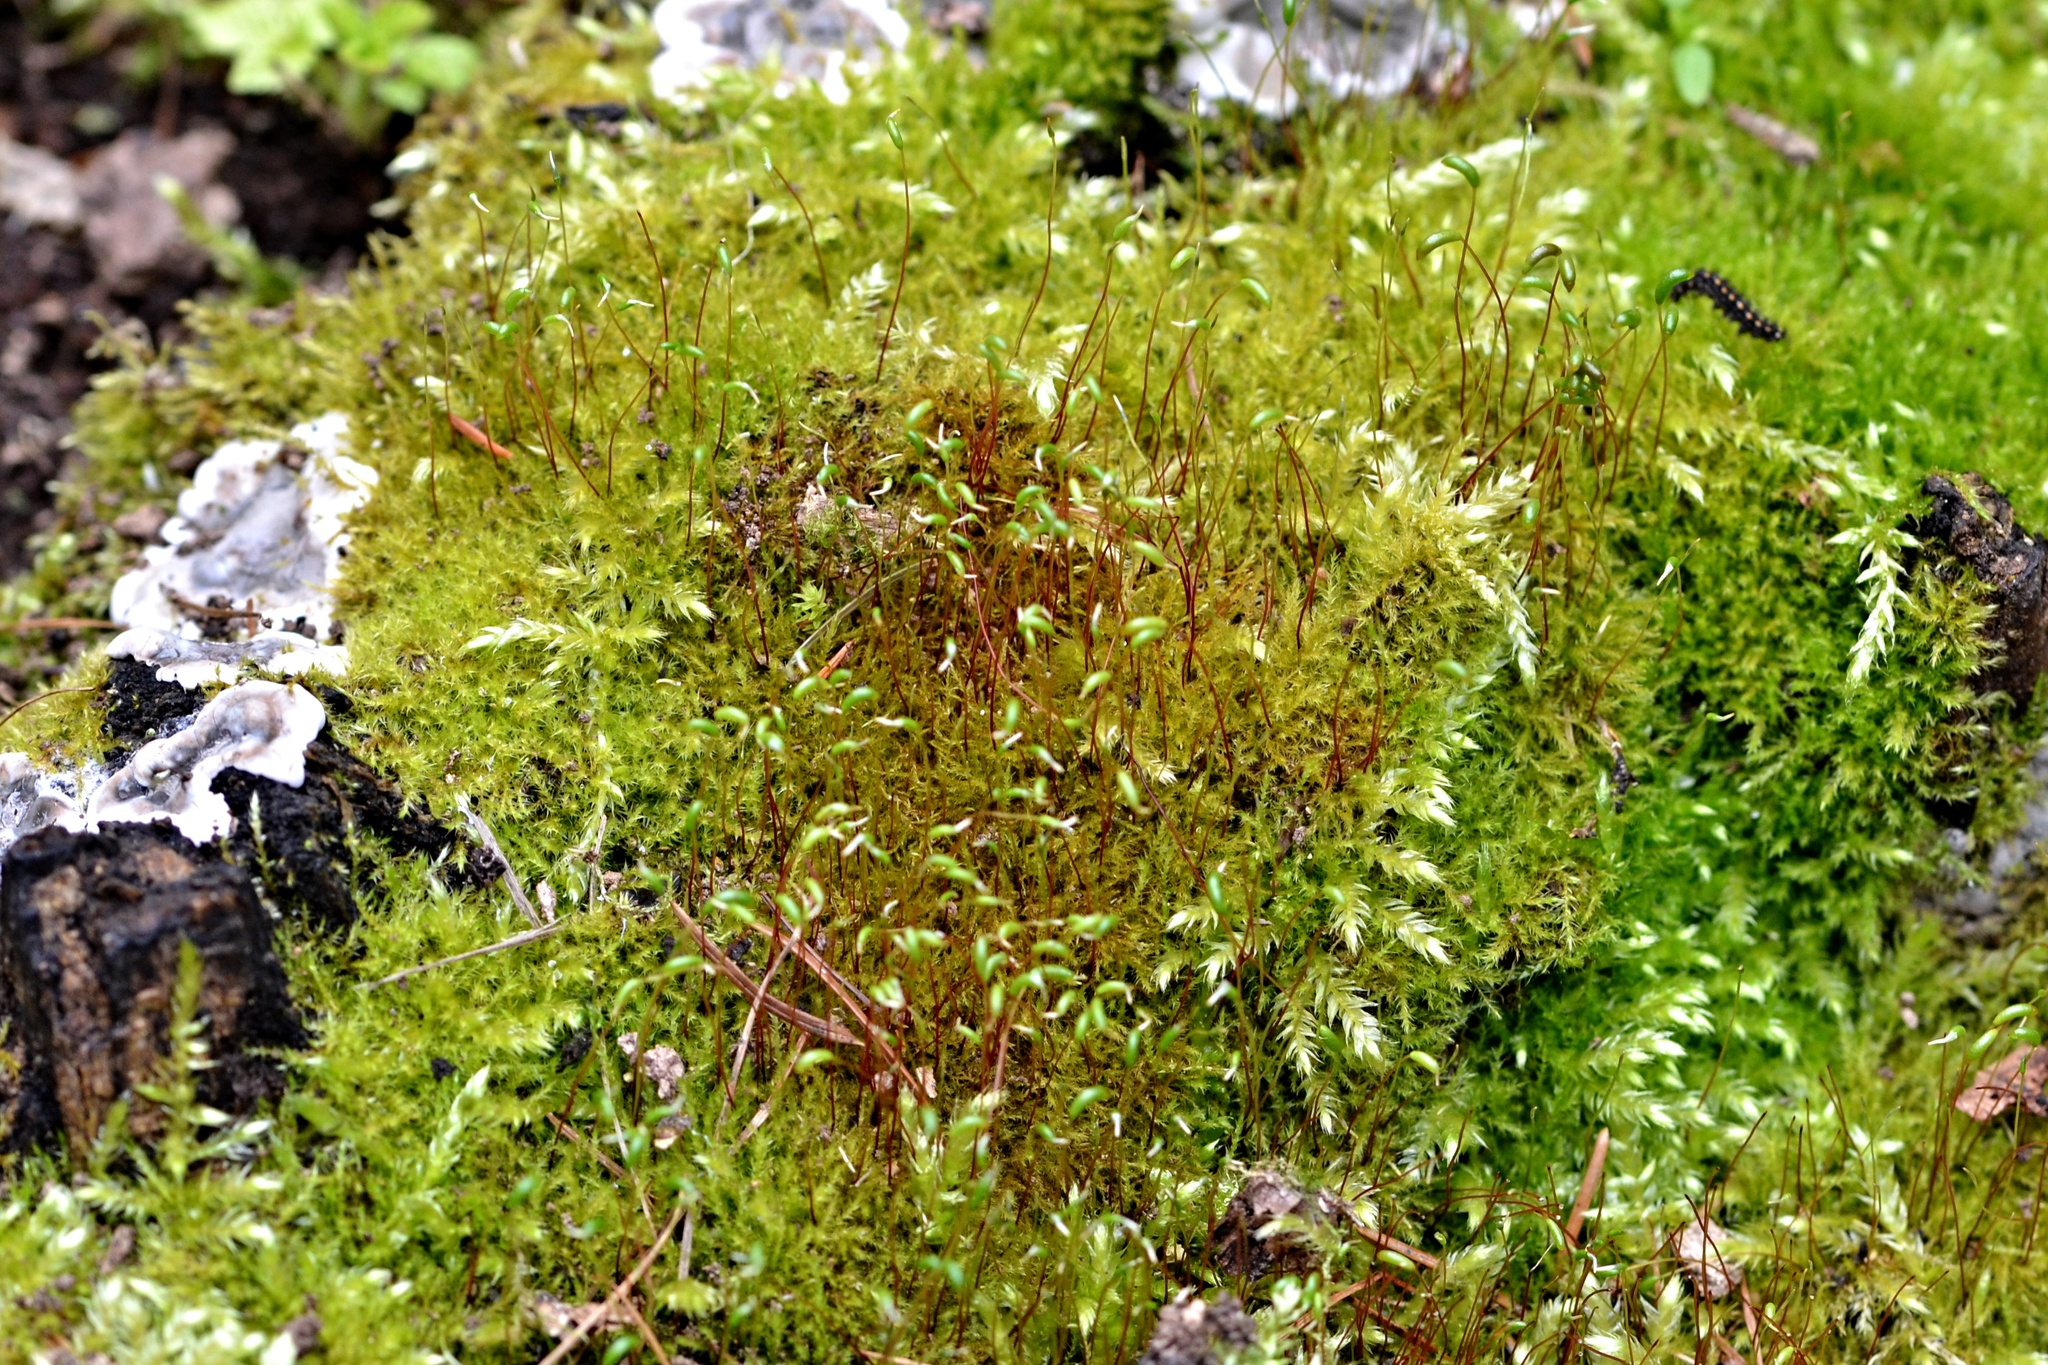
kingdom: Plantae
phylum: Bryophyta
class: Bryopsida
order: Hypnales
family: Amblystegiaceae
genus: Amblystegium
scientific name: Amblystegium serpens
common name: Jurkatzka's feather moss
